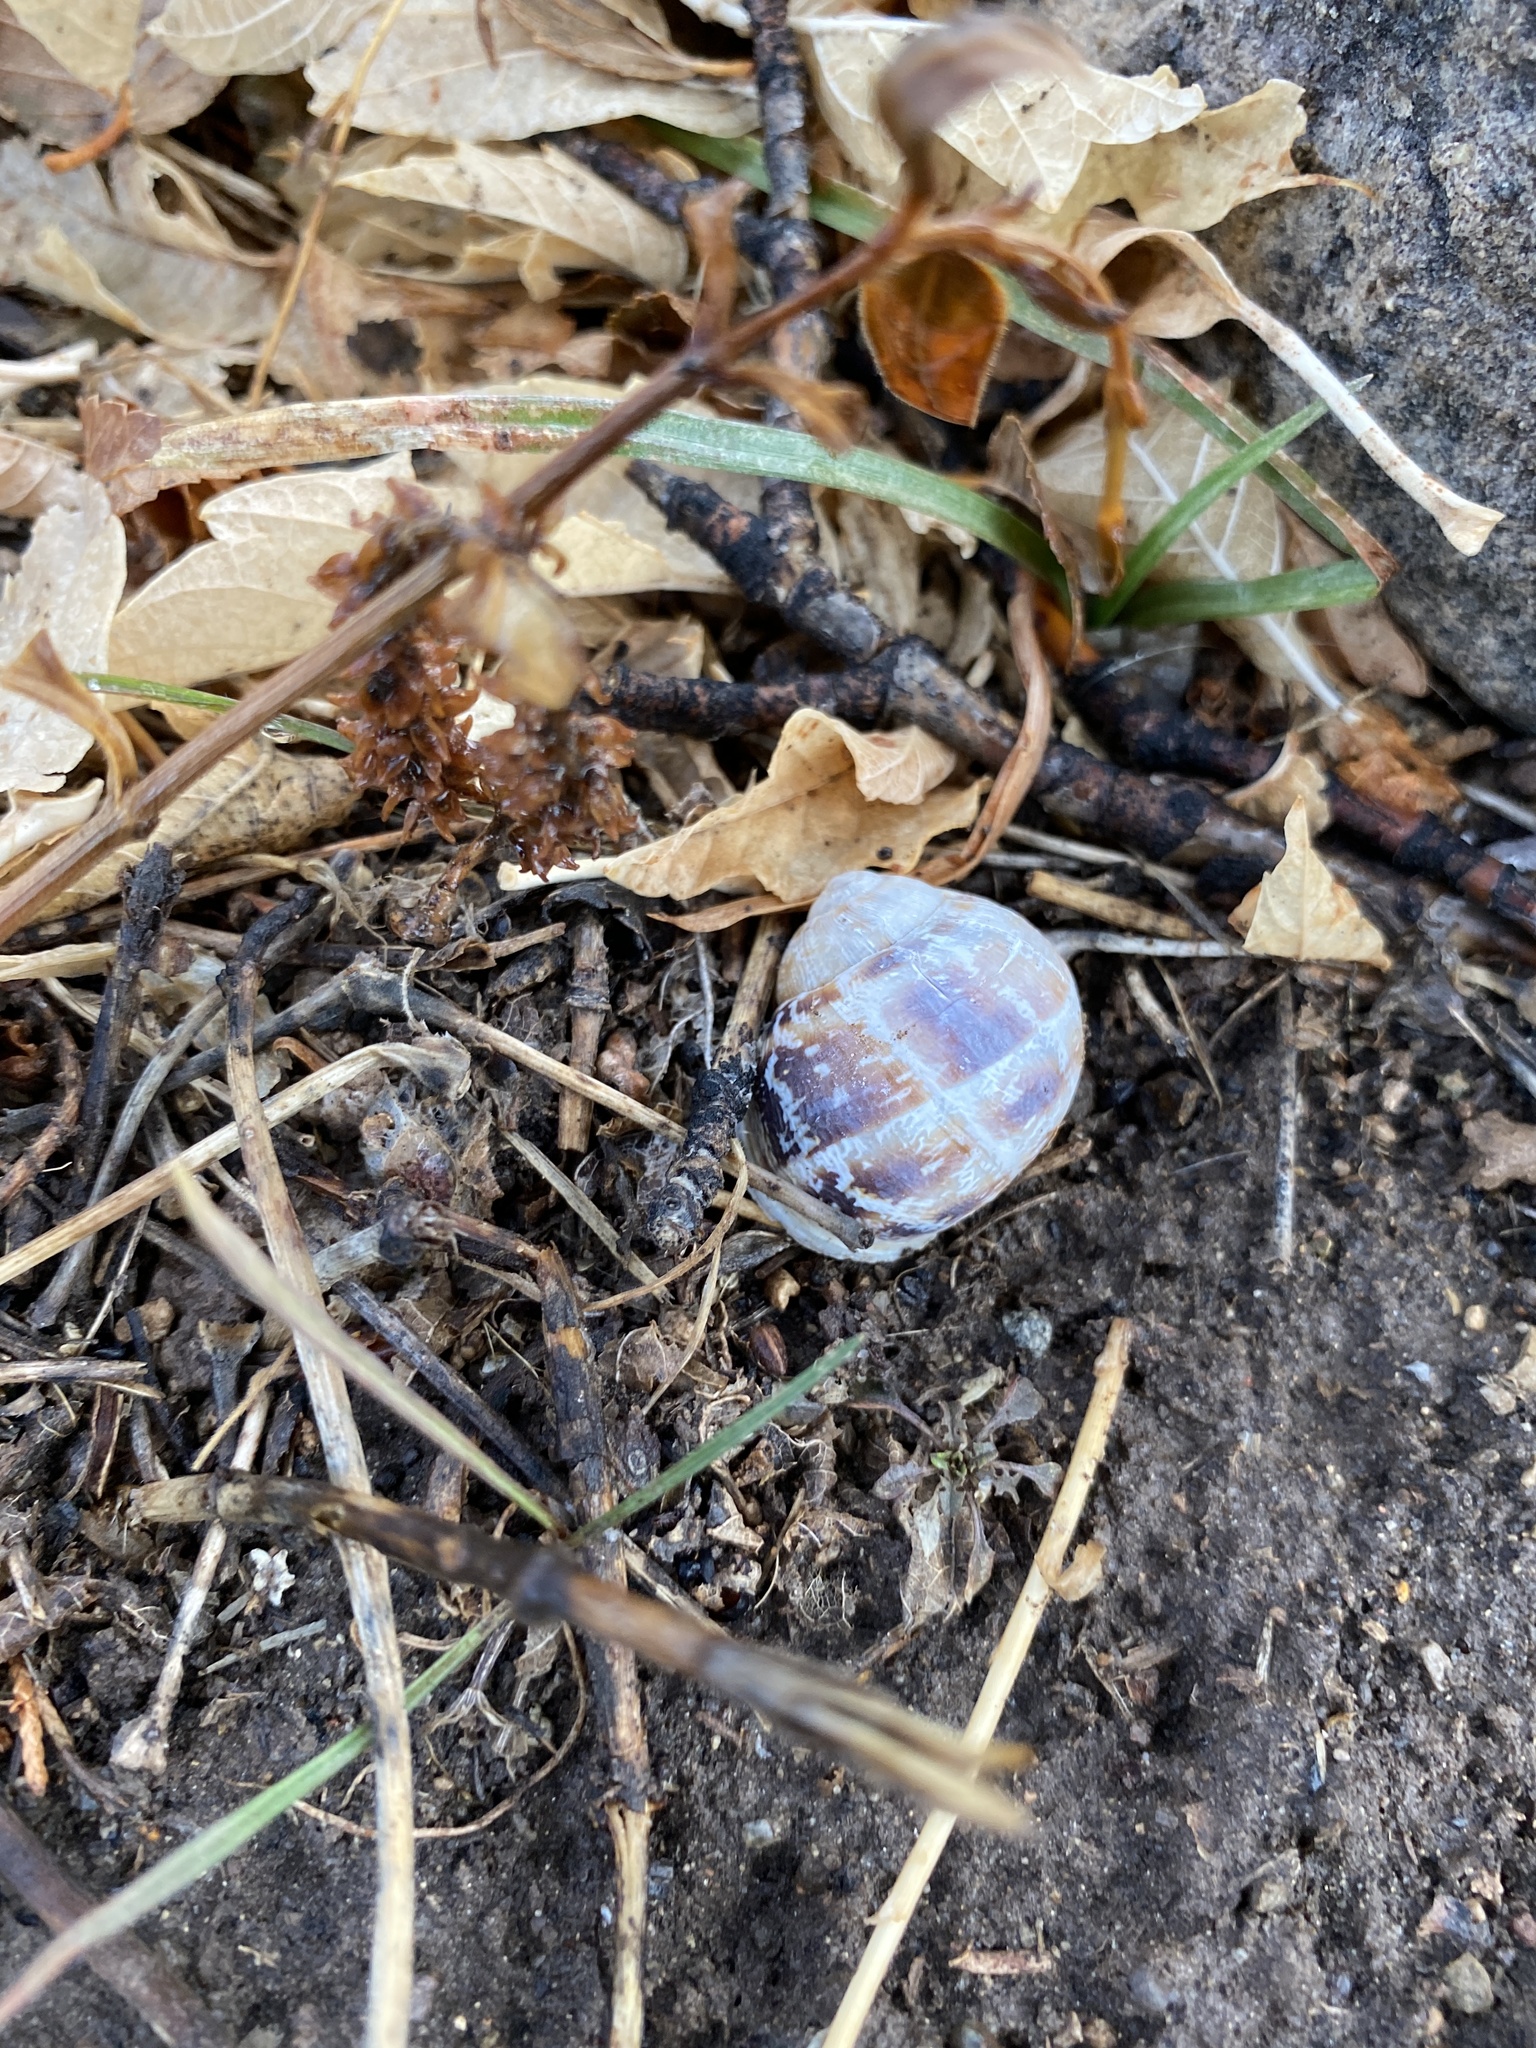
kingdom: Animalia
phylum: Mollusca
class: Gastropoda
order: Stylommatophora
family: Helicidae
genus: Cornu
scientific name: Cornu aspersum
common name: Brown garden snail
